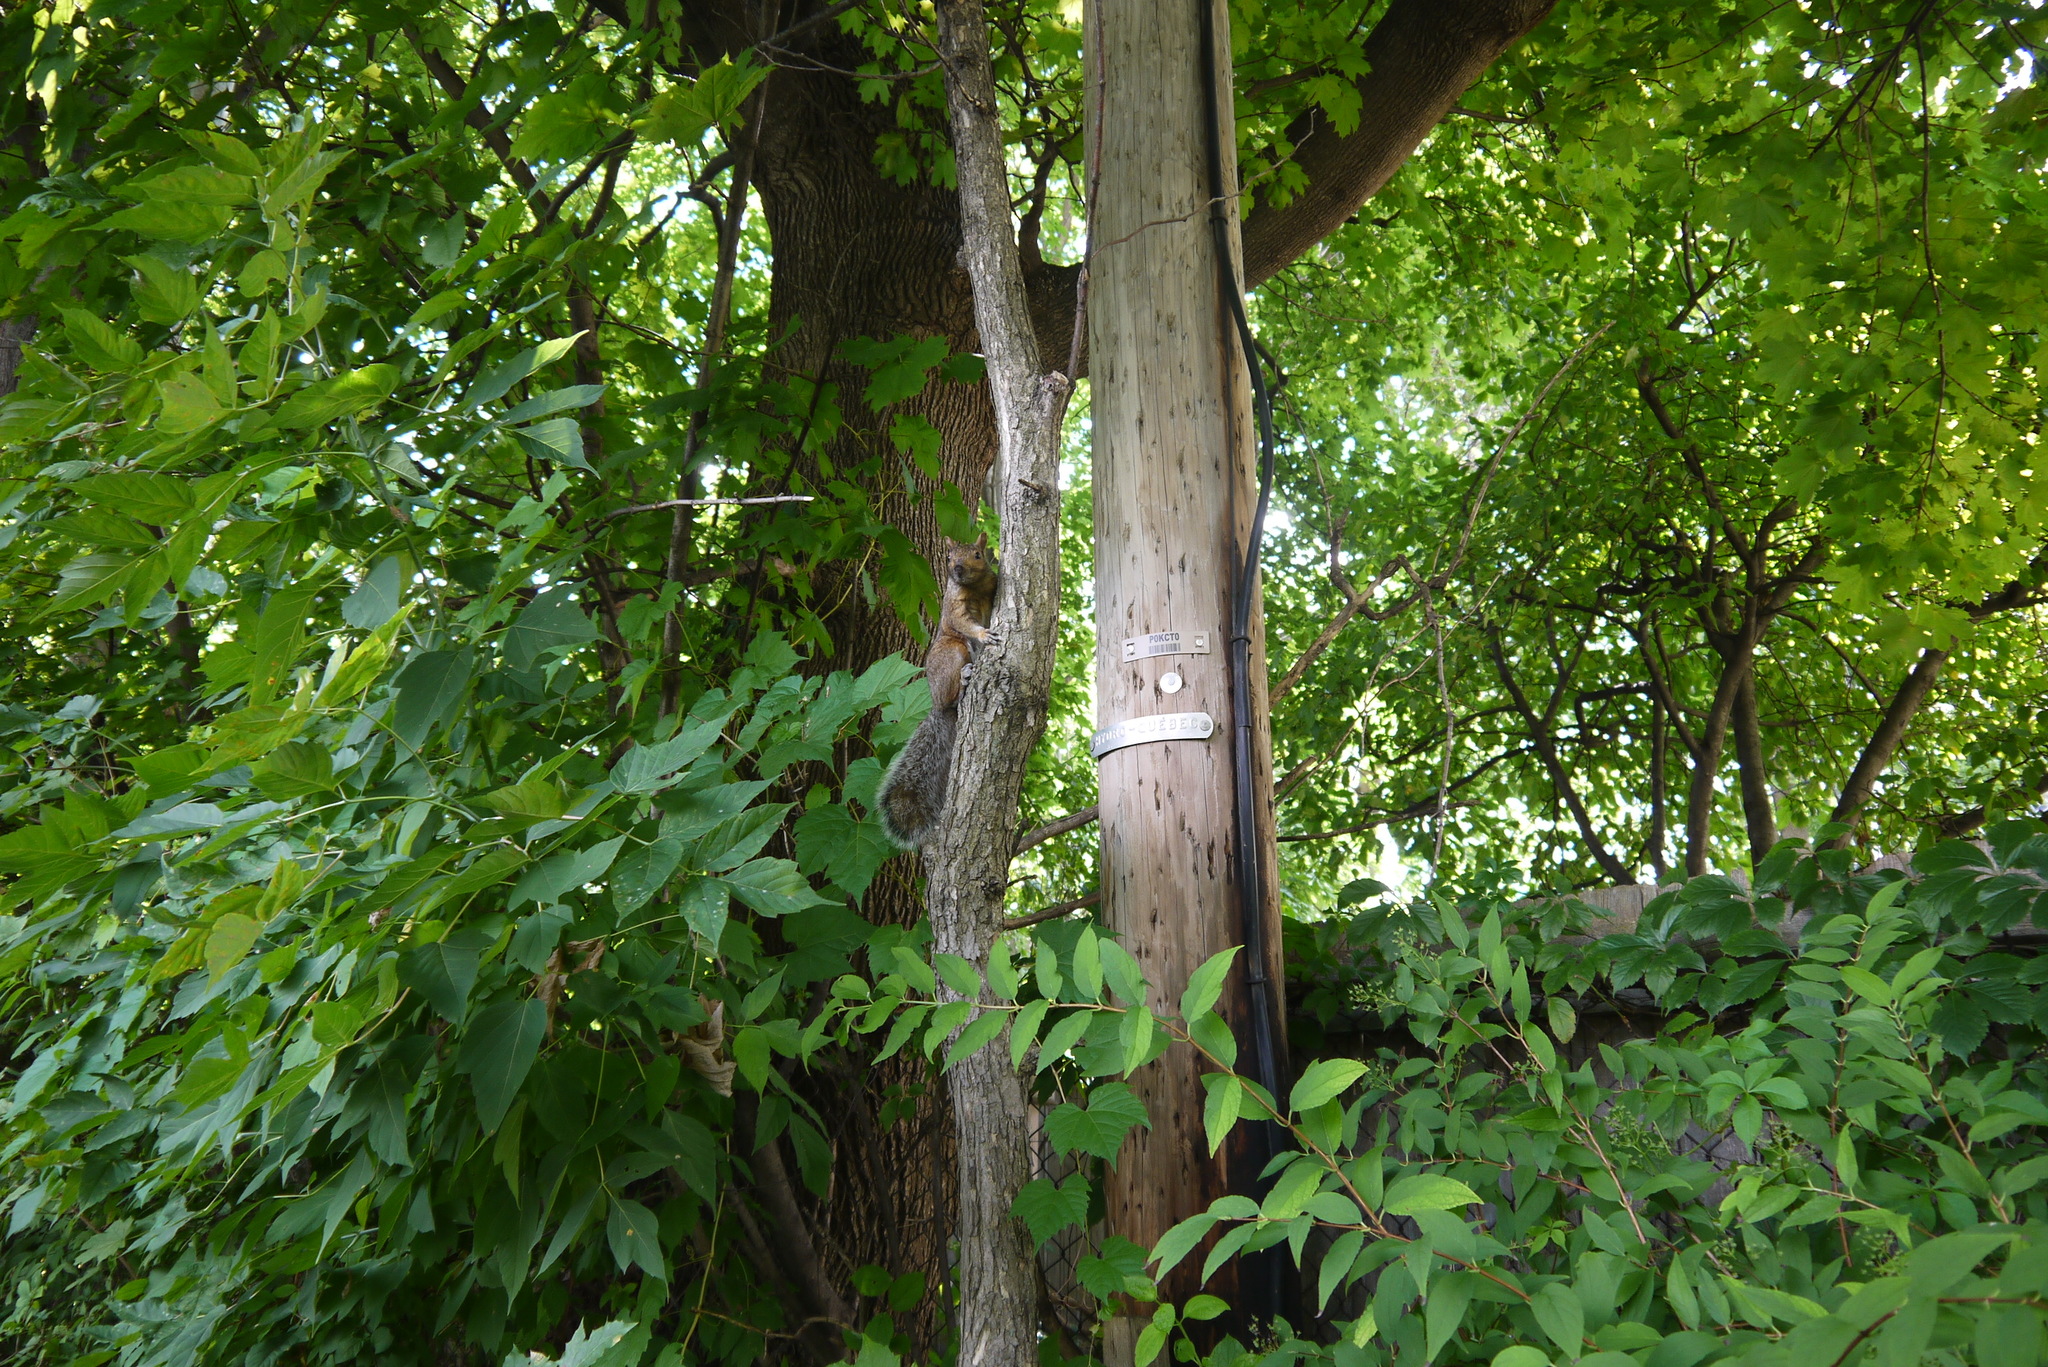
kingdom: Animalia
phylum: Chordata
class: Mammalia
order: Rodentia
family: Sciuridae
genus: Sciurus
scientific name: Sciurus carolinensis
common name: Eastern gray squirrel
